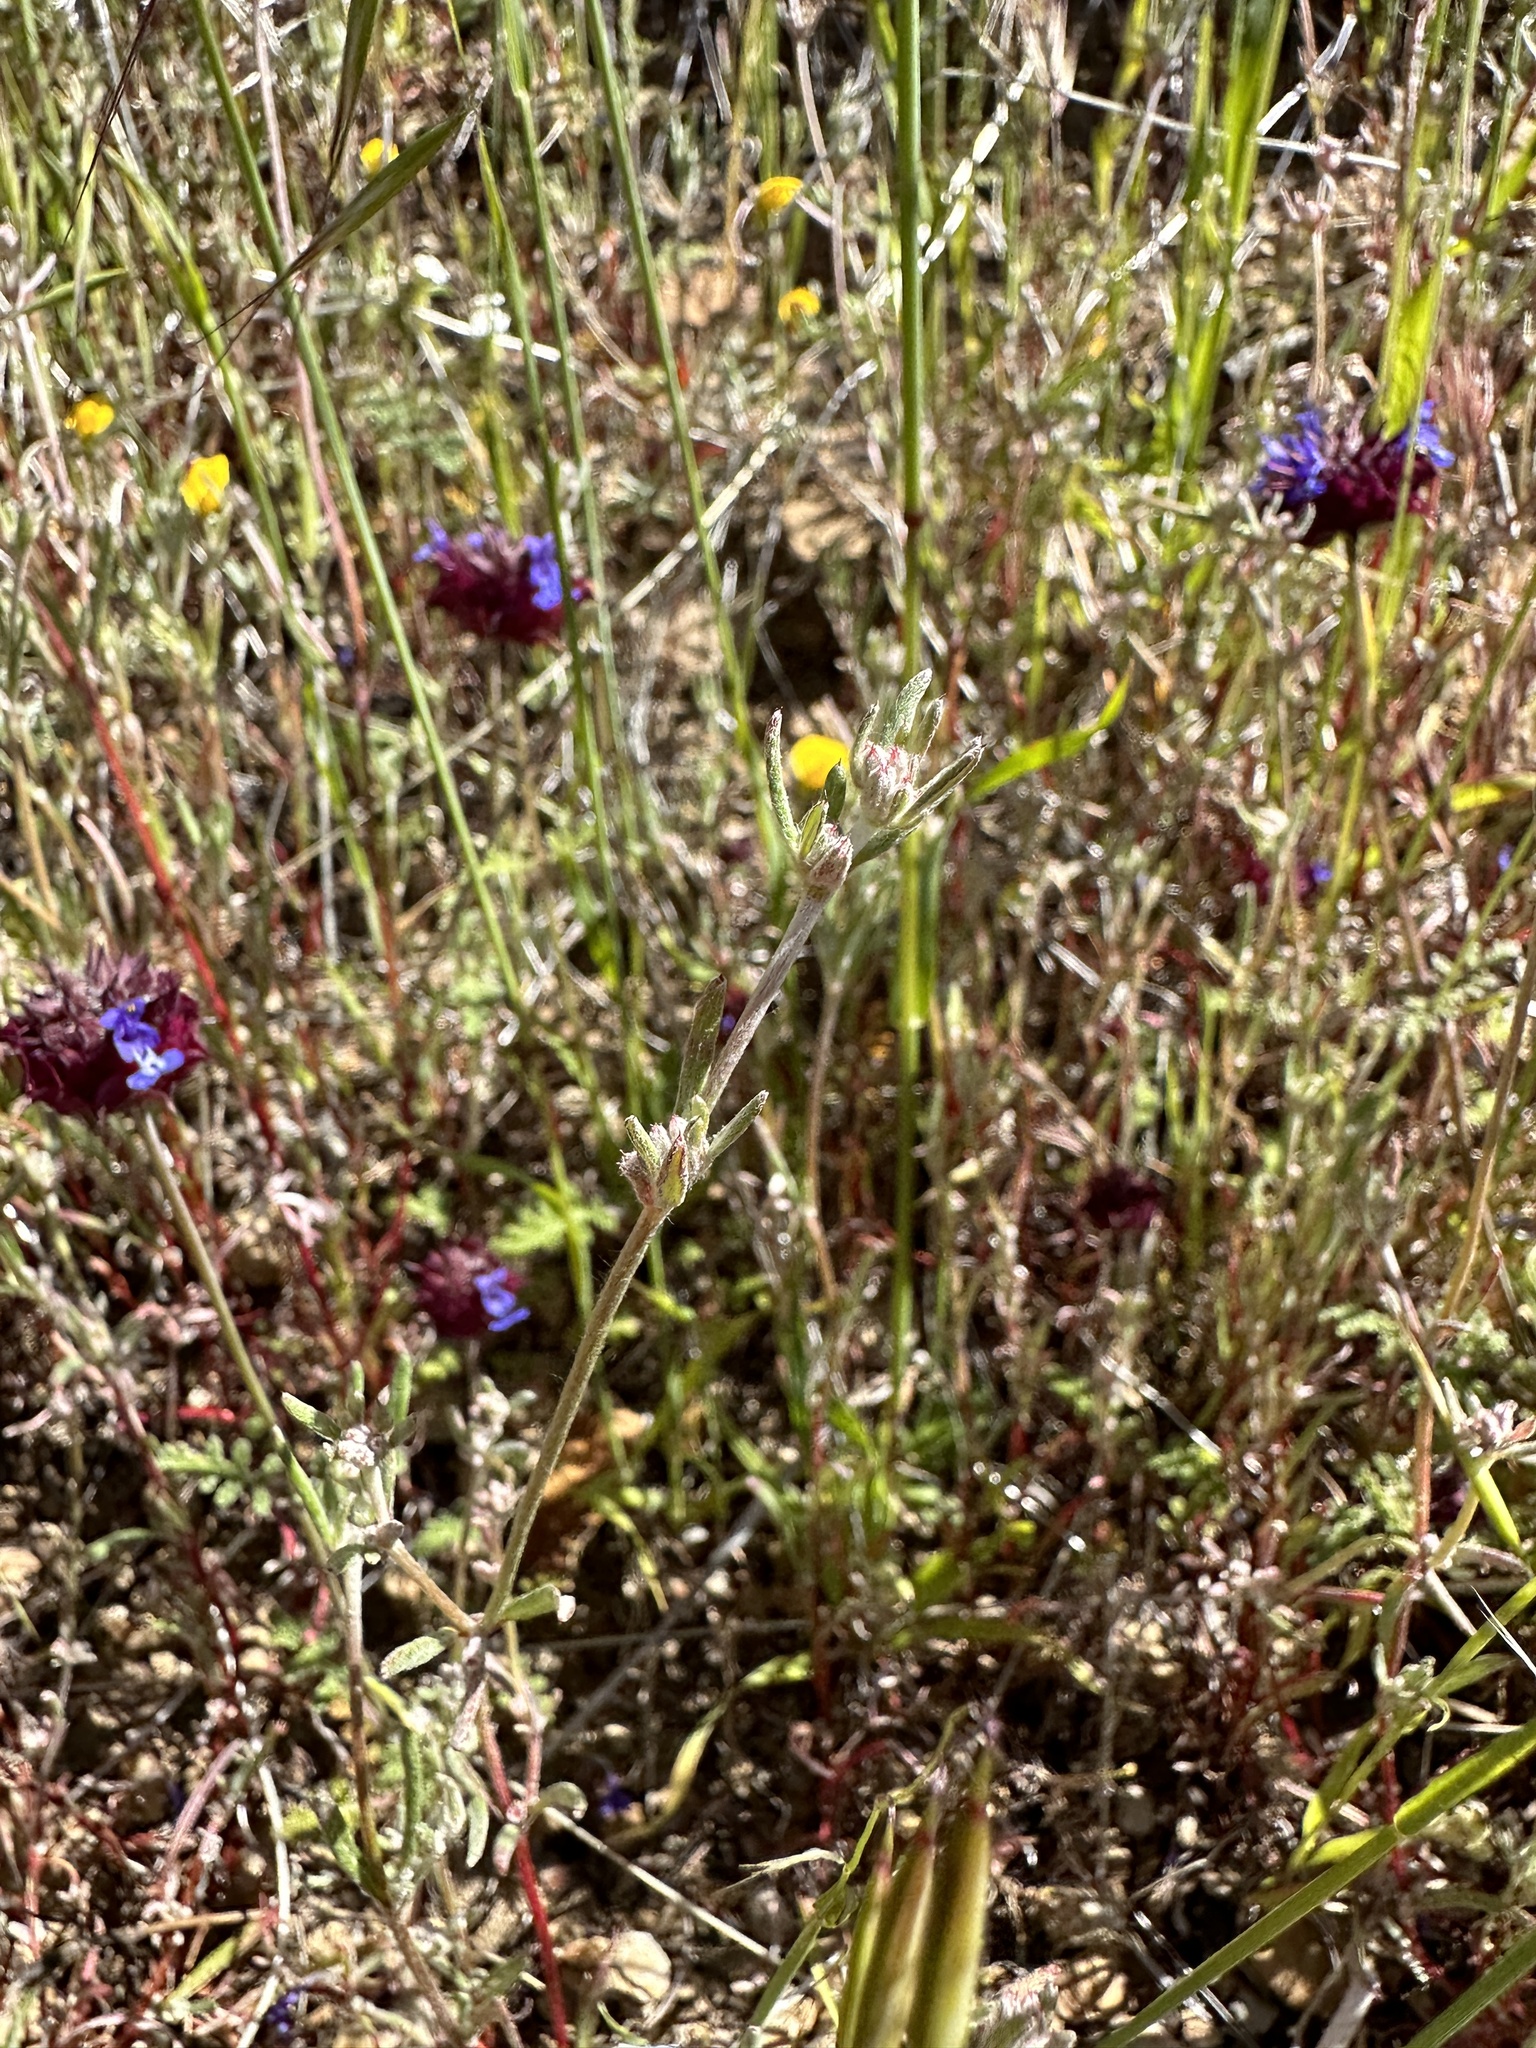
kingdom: Plantae
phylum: Tracheophyta
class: Magnoliopsida
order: Caryophyllales
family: Polygonaceae
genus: Chorizanthe
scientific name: Chorizanthe membranacea
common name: Pink spineflower
